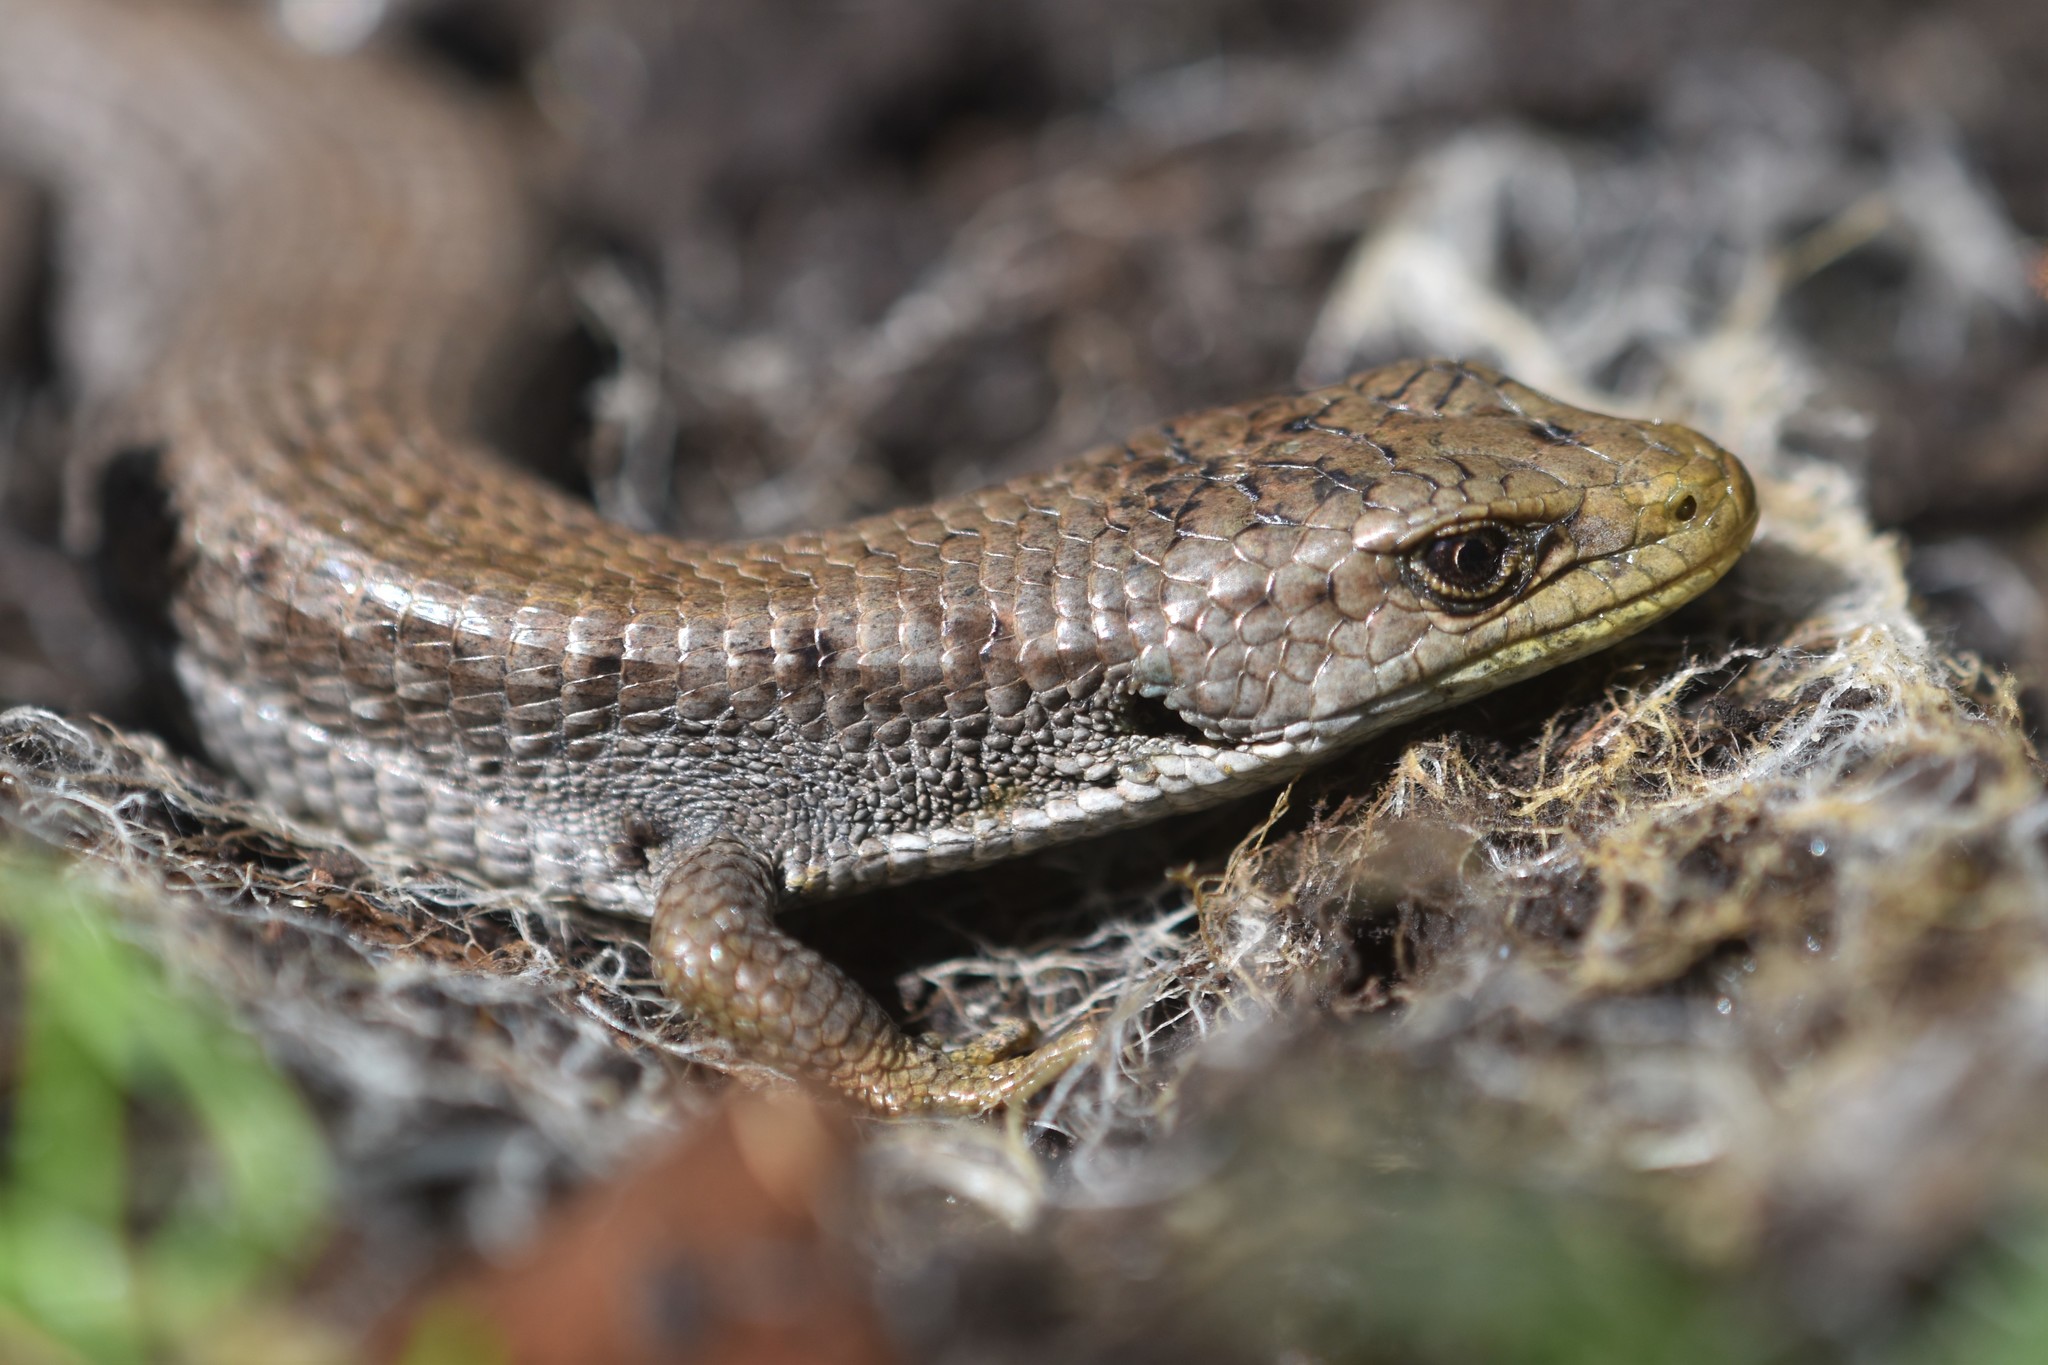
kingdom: Animalia
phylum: Chordata
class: Squamata
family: Anguidae
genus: Elgaria
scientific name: Elgaria coerulea
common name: Northern alligator lizard
